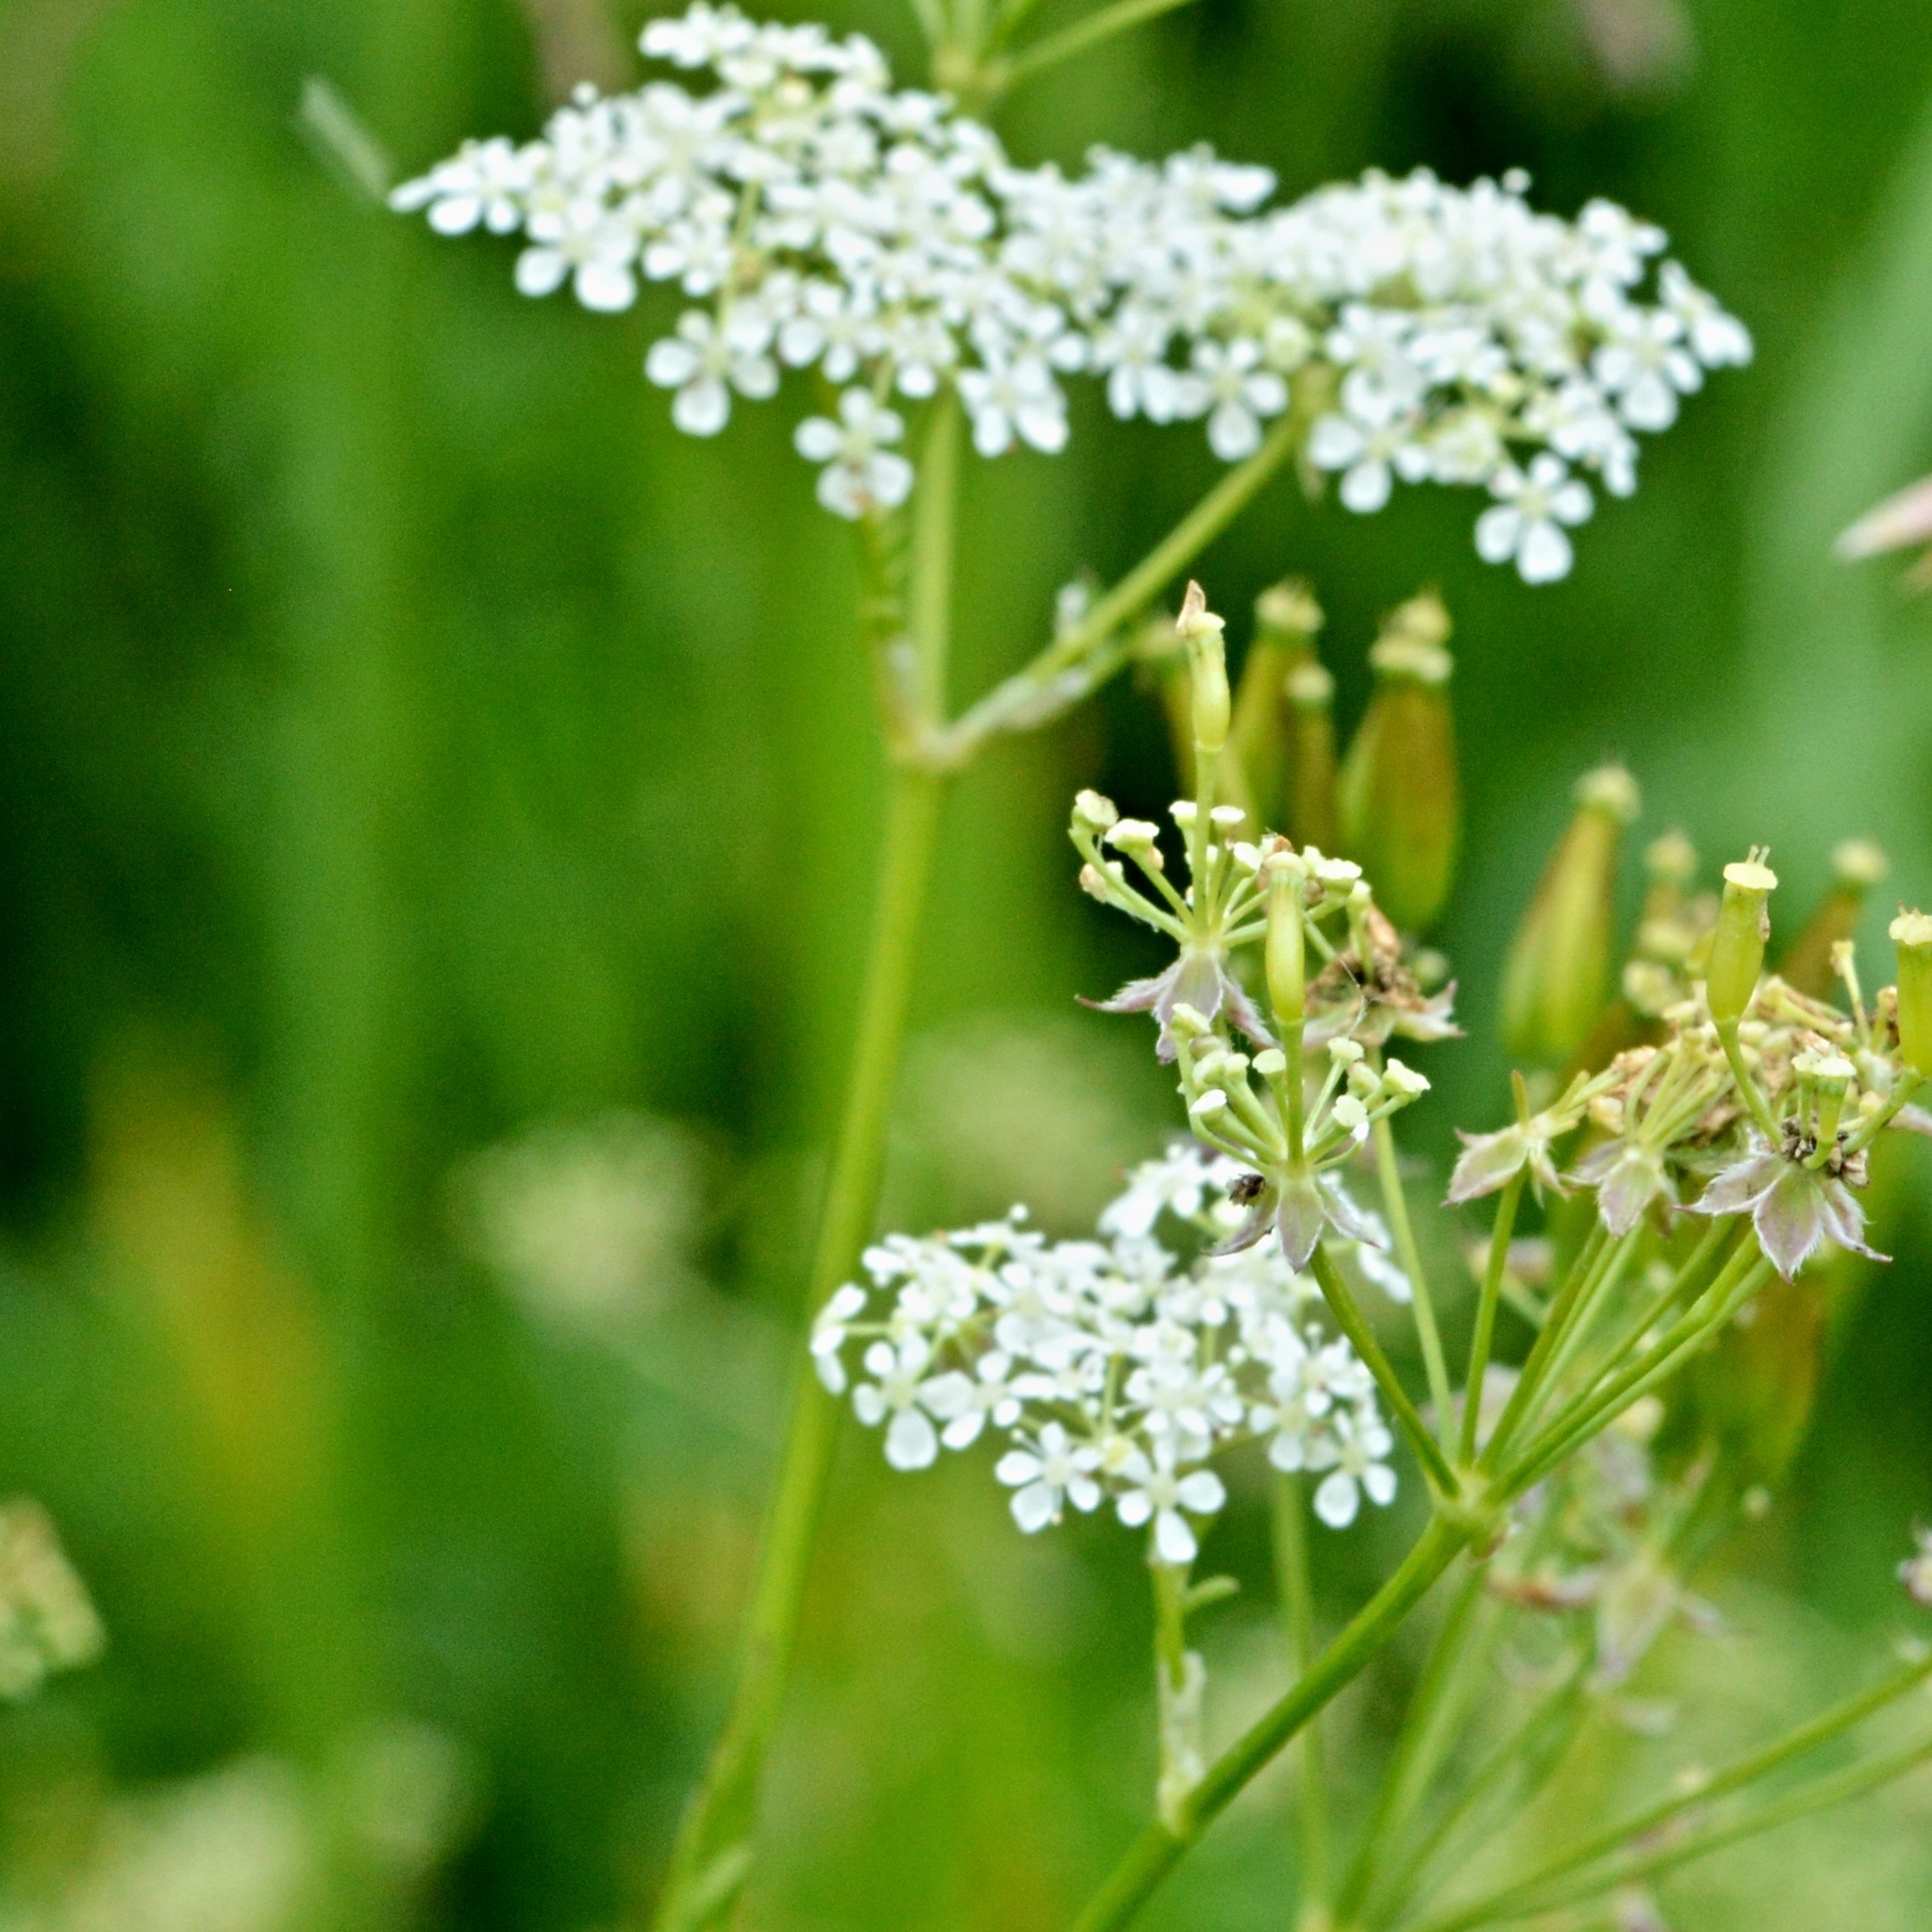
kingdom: Plantae
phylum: Tracheophyta
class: Magnoliopsida
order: Apiales
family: Apiaceae
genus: Anthriscus
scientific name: Anthriscus sylvestris
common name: Cow parsley
